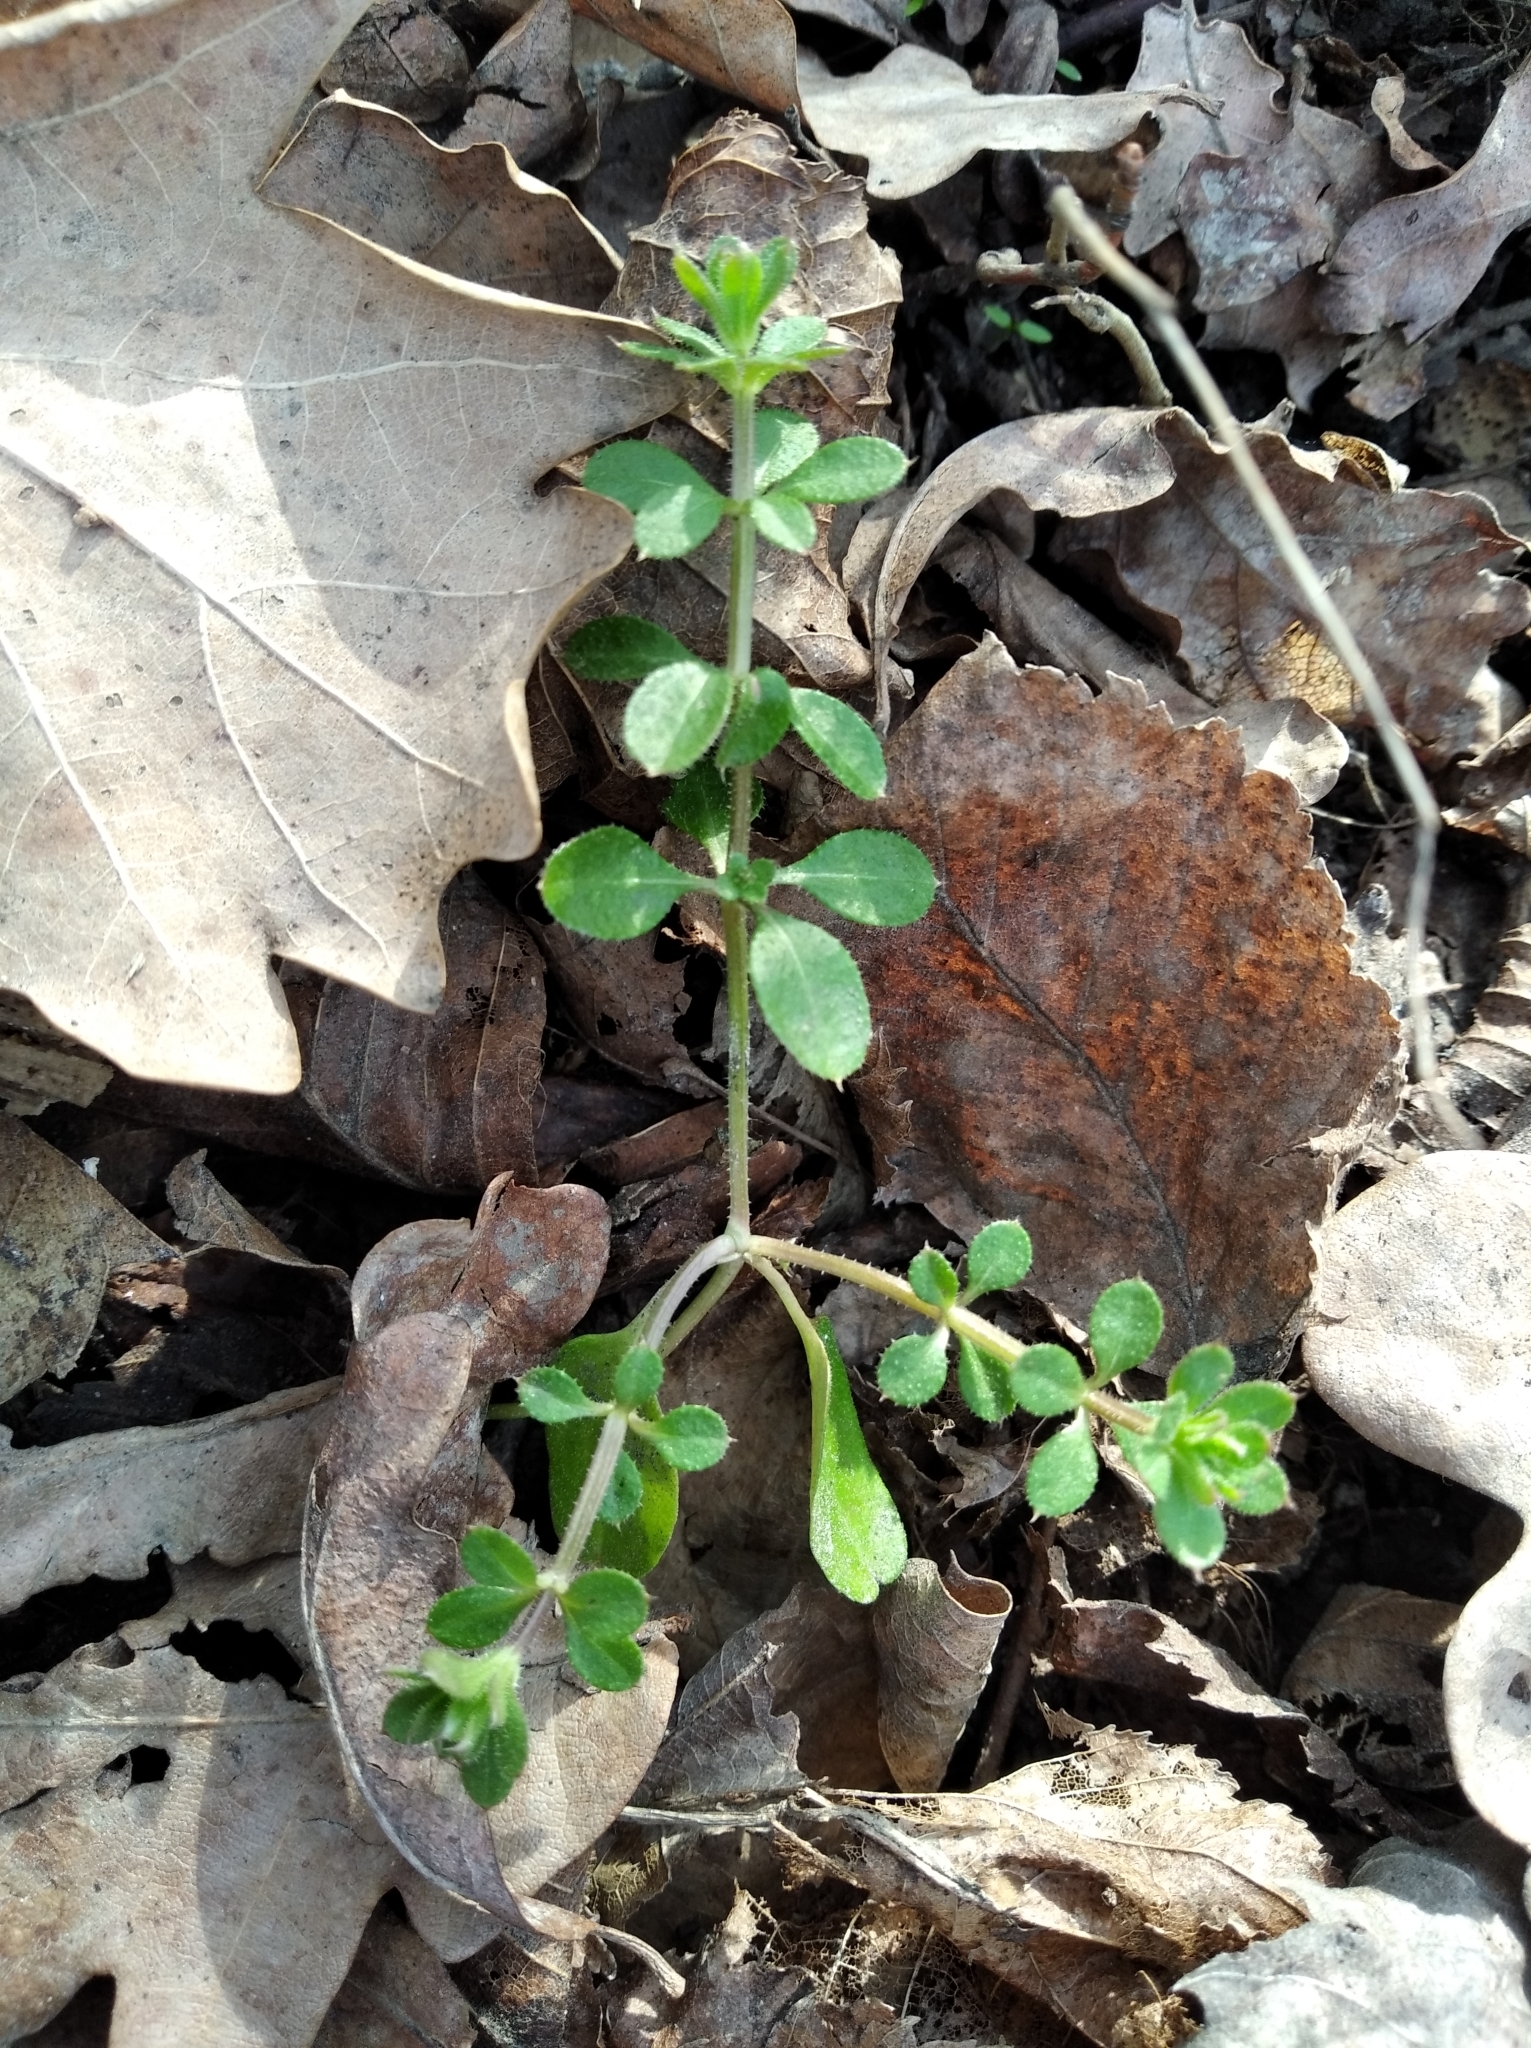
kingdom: Plantae
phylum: Tracheophyta
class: Magnoliopsida
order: Gentianales
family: Rubiaceae
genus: Galium
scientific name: Galium aparine
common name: Cleavers
